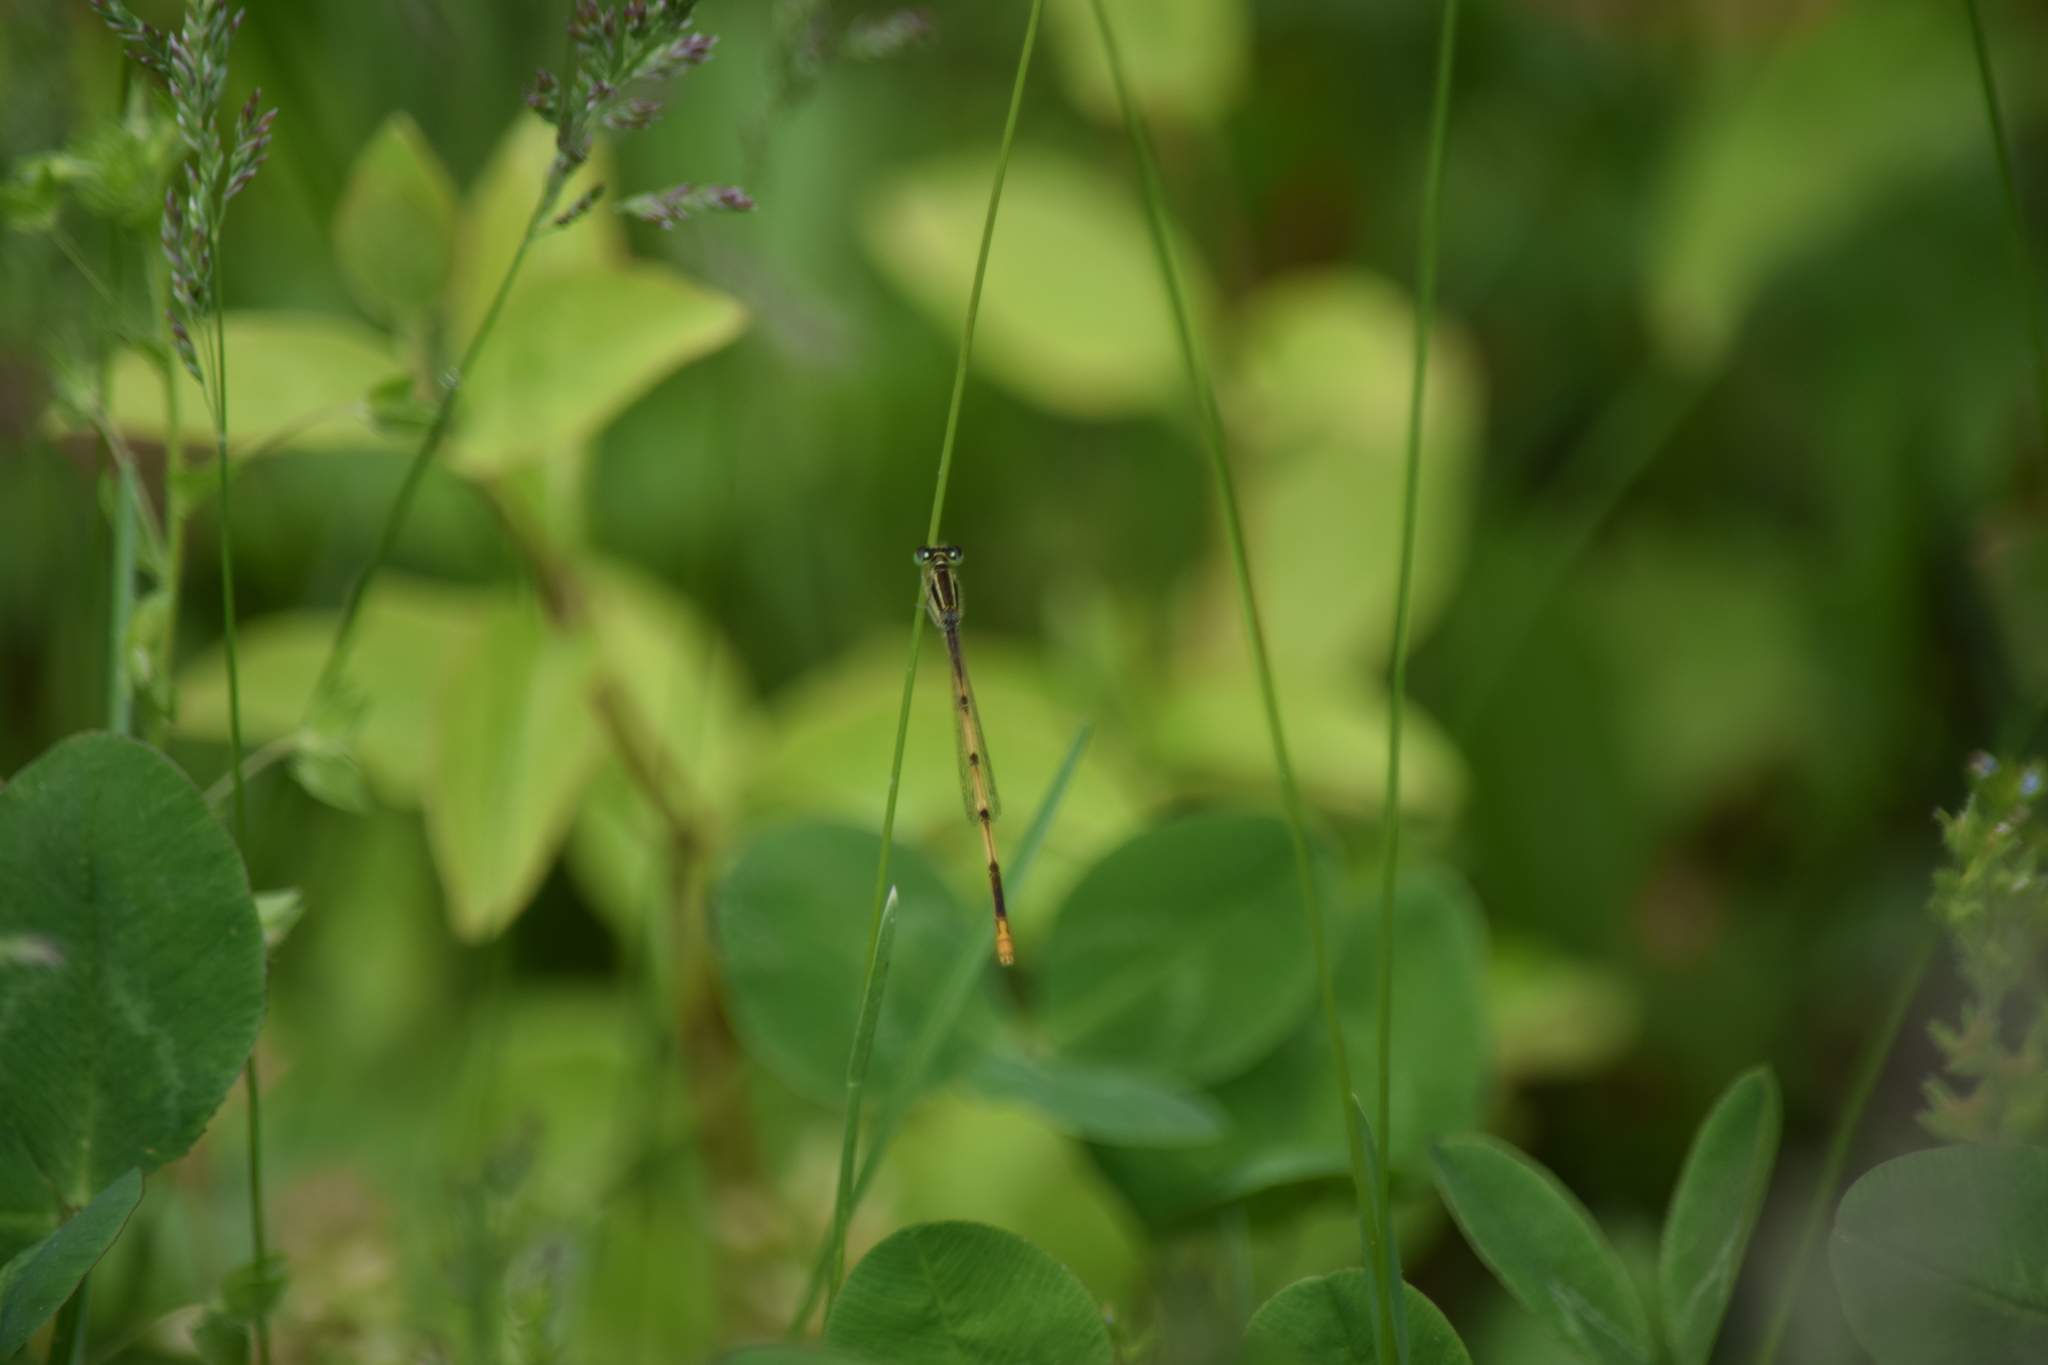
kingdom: Animalia
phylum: Arthropoda
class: Insecta
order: Odonata
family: Coenagrionidae
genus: Ischnura
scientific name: Ischnura hastata
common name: Citrine forktail
